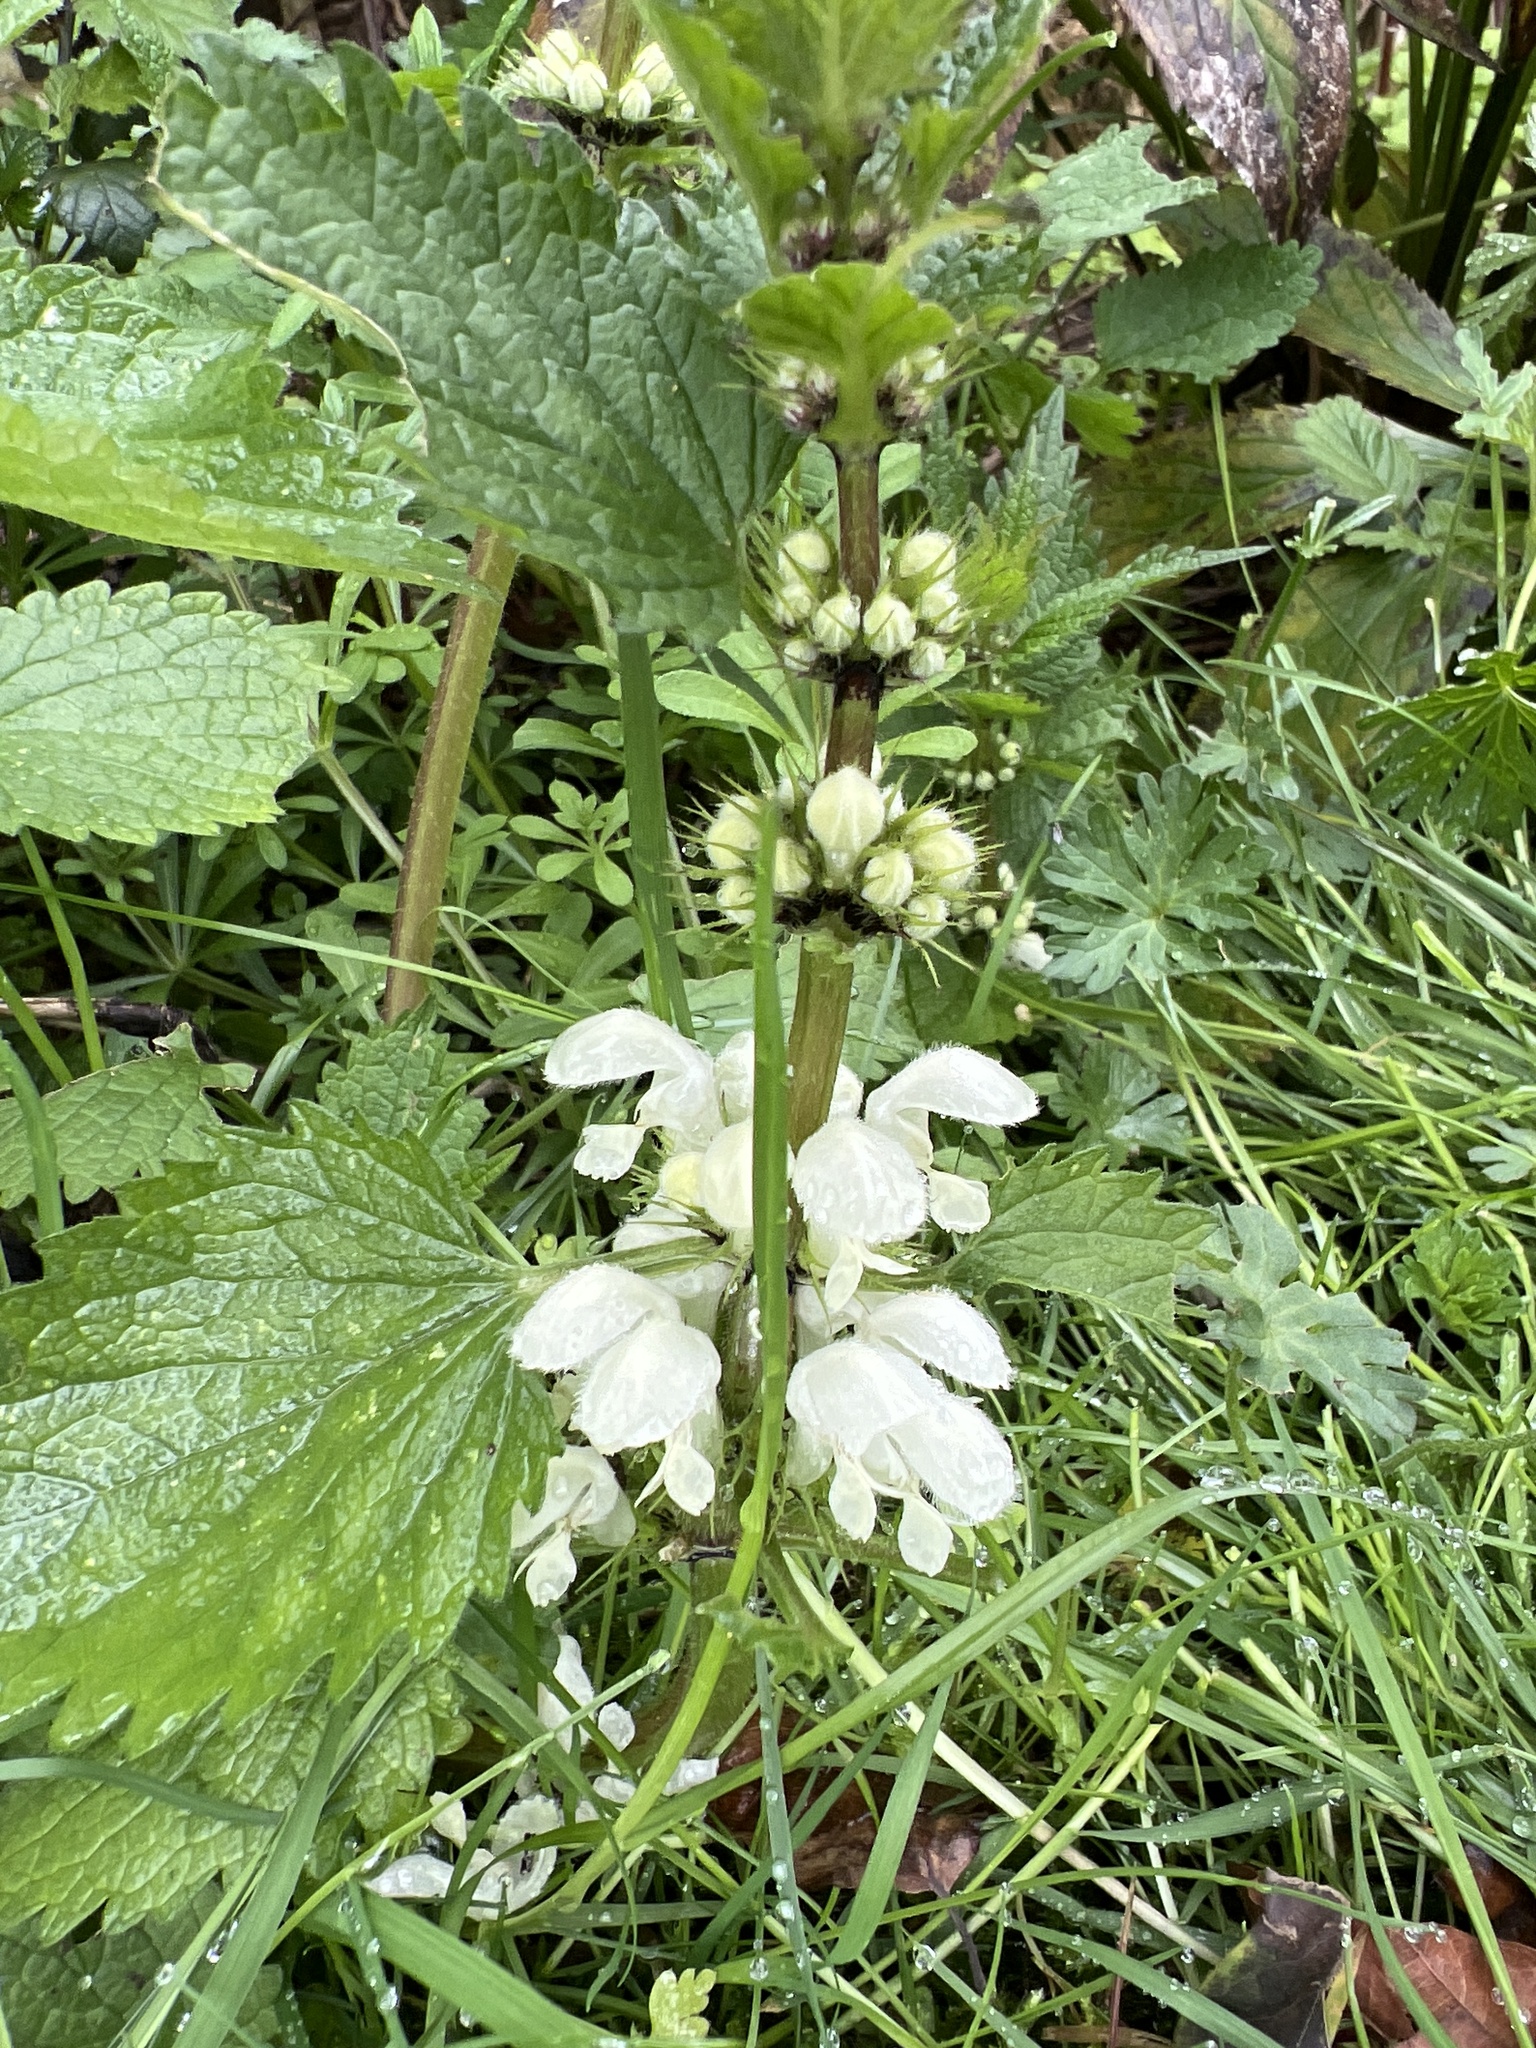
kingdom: Plantae
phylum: Tracheophyta
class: Magnoliopsida
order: Lamiales
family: Lamiaceae
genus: Lamium
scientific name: Lamium album
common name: White dead-nettle
